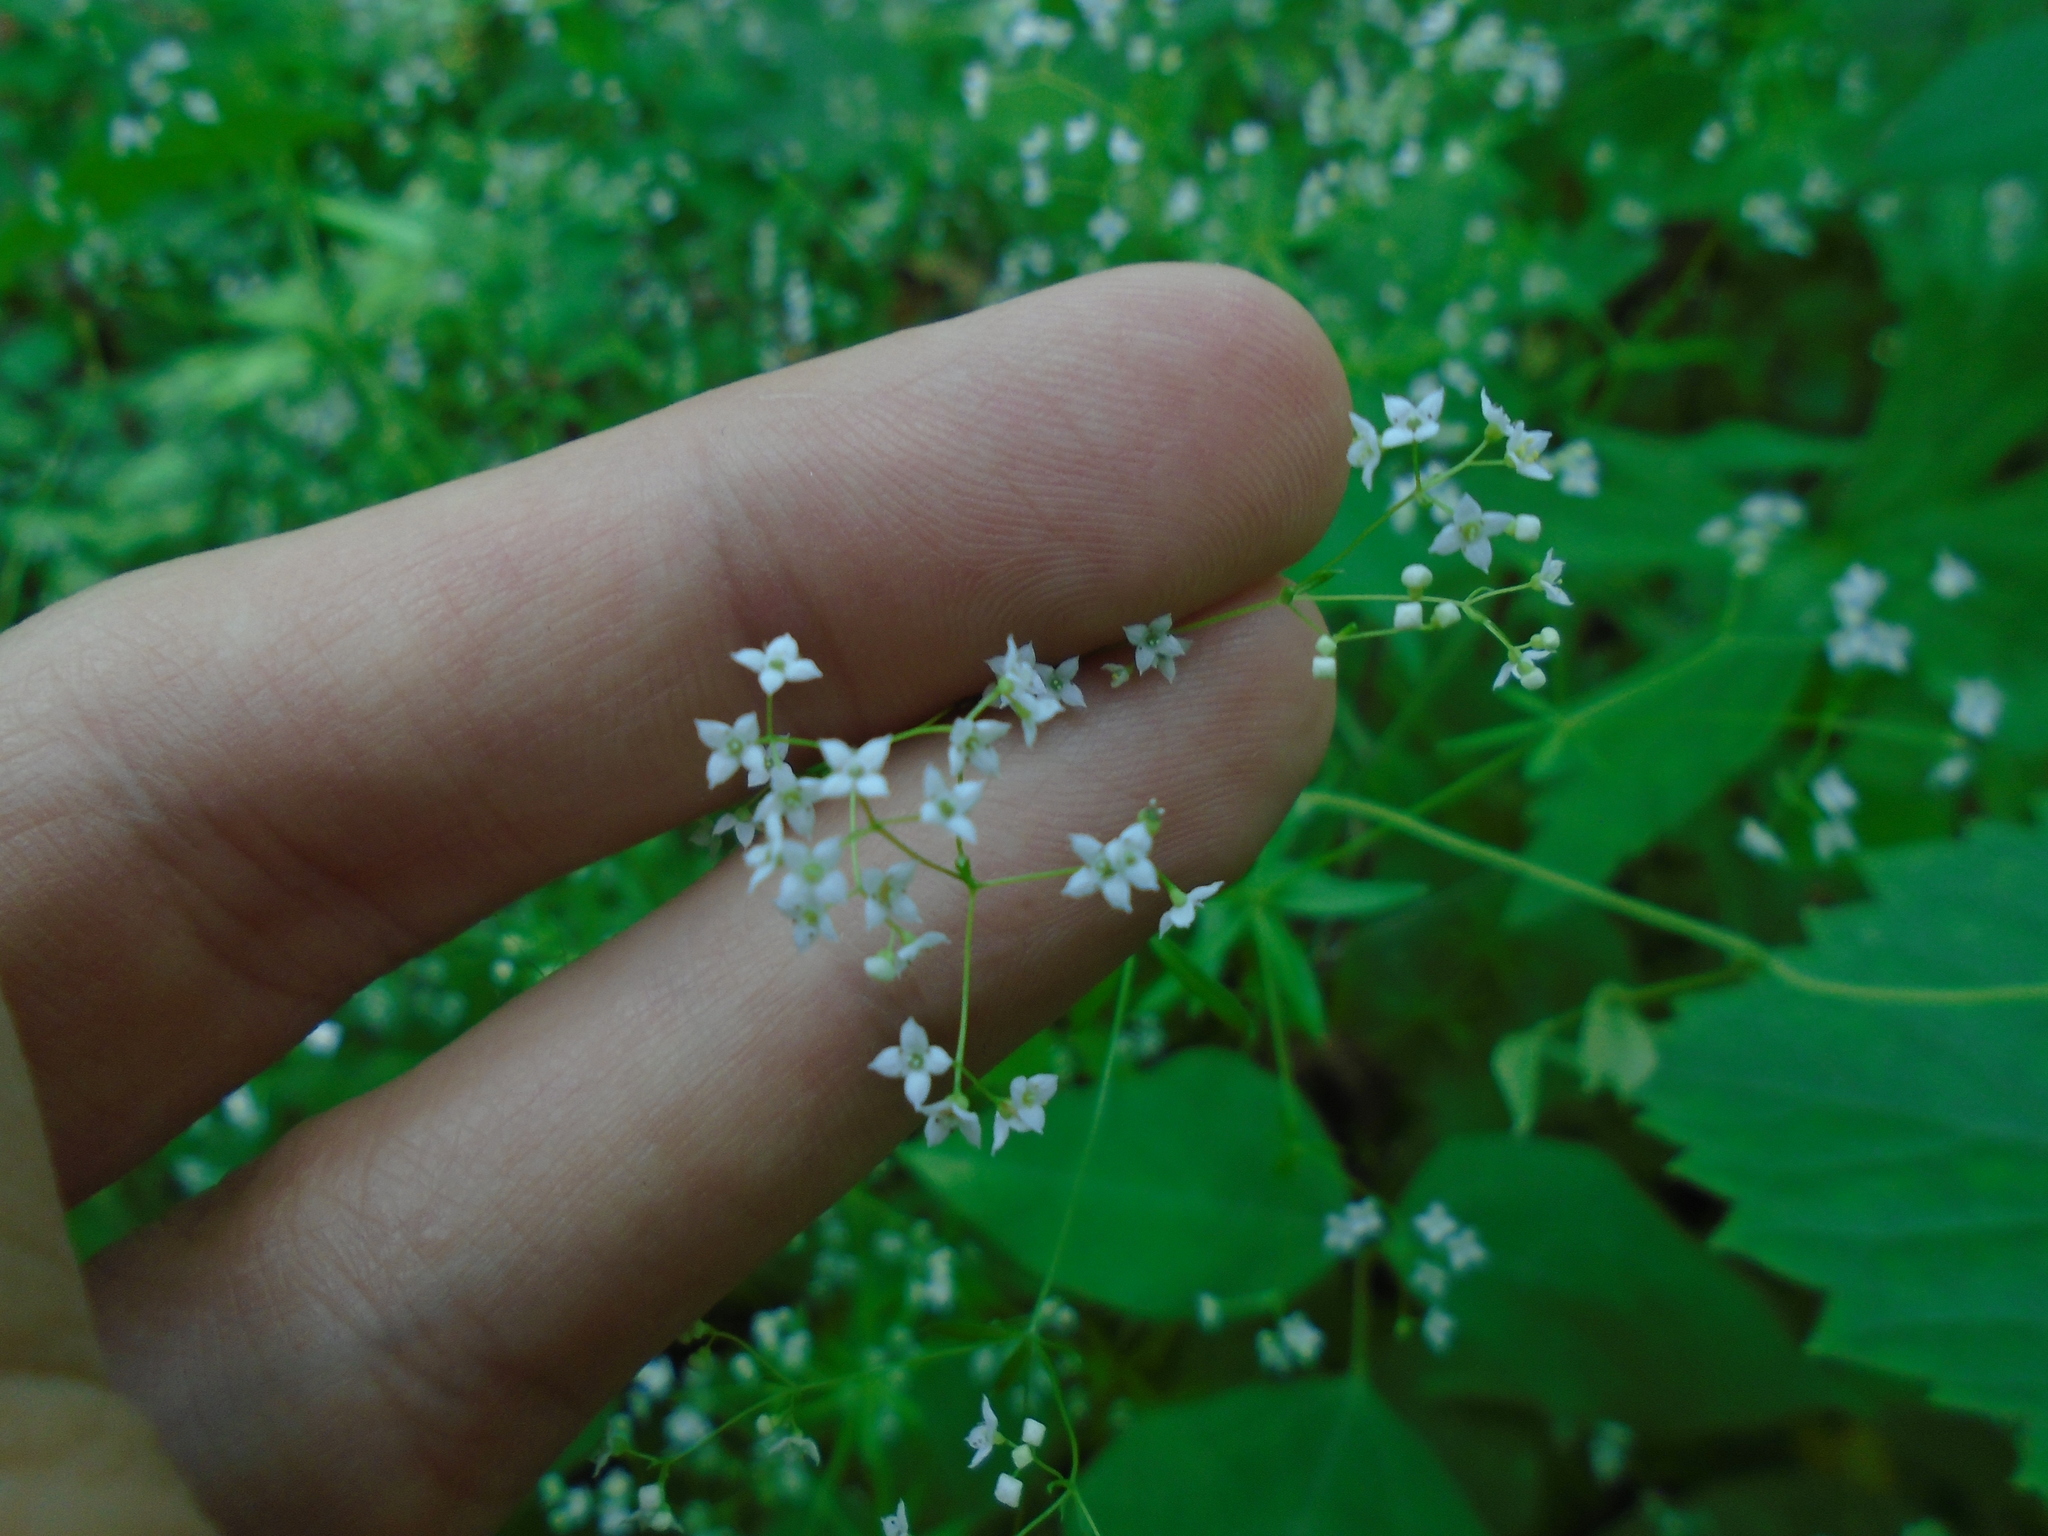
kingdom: Plantae
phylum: Tracheophyta
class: Magnoliopsida
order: Gentianales
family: Rubiaceae
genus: Galium
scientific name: Galium concinnum
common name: Shining bedstraw
